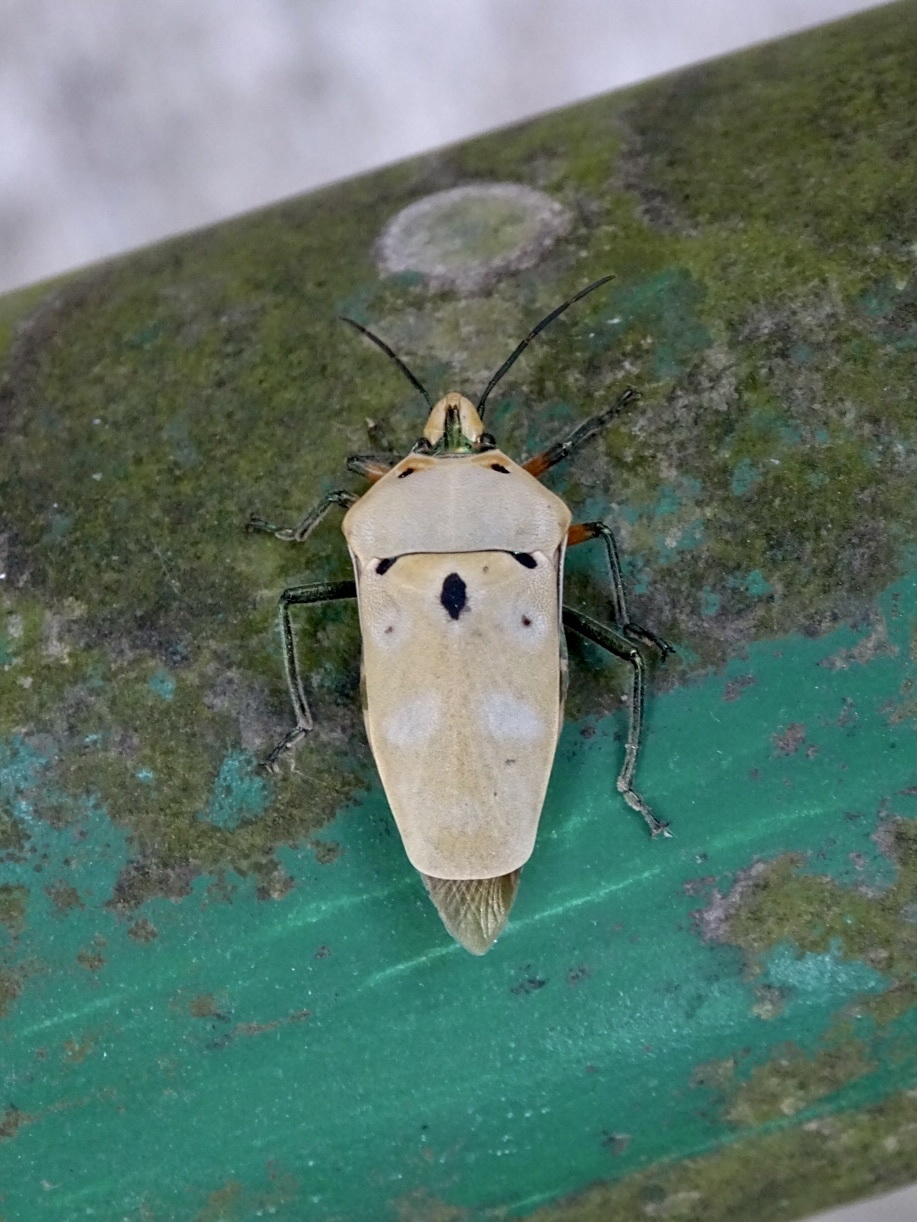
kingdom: Animalia
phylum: Arthropoda
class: Insecta
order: Hemiptera
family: Scutelleridae
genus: Cantao
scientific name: Cantao ocellatus
